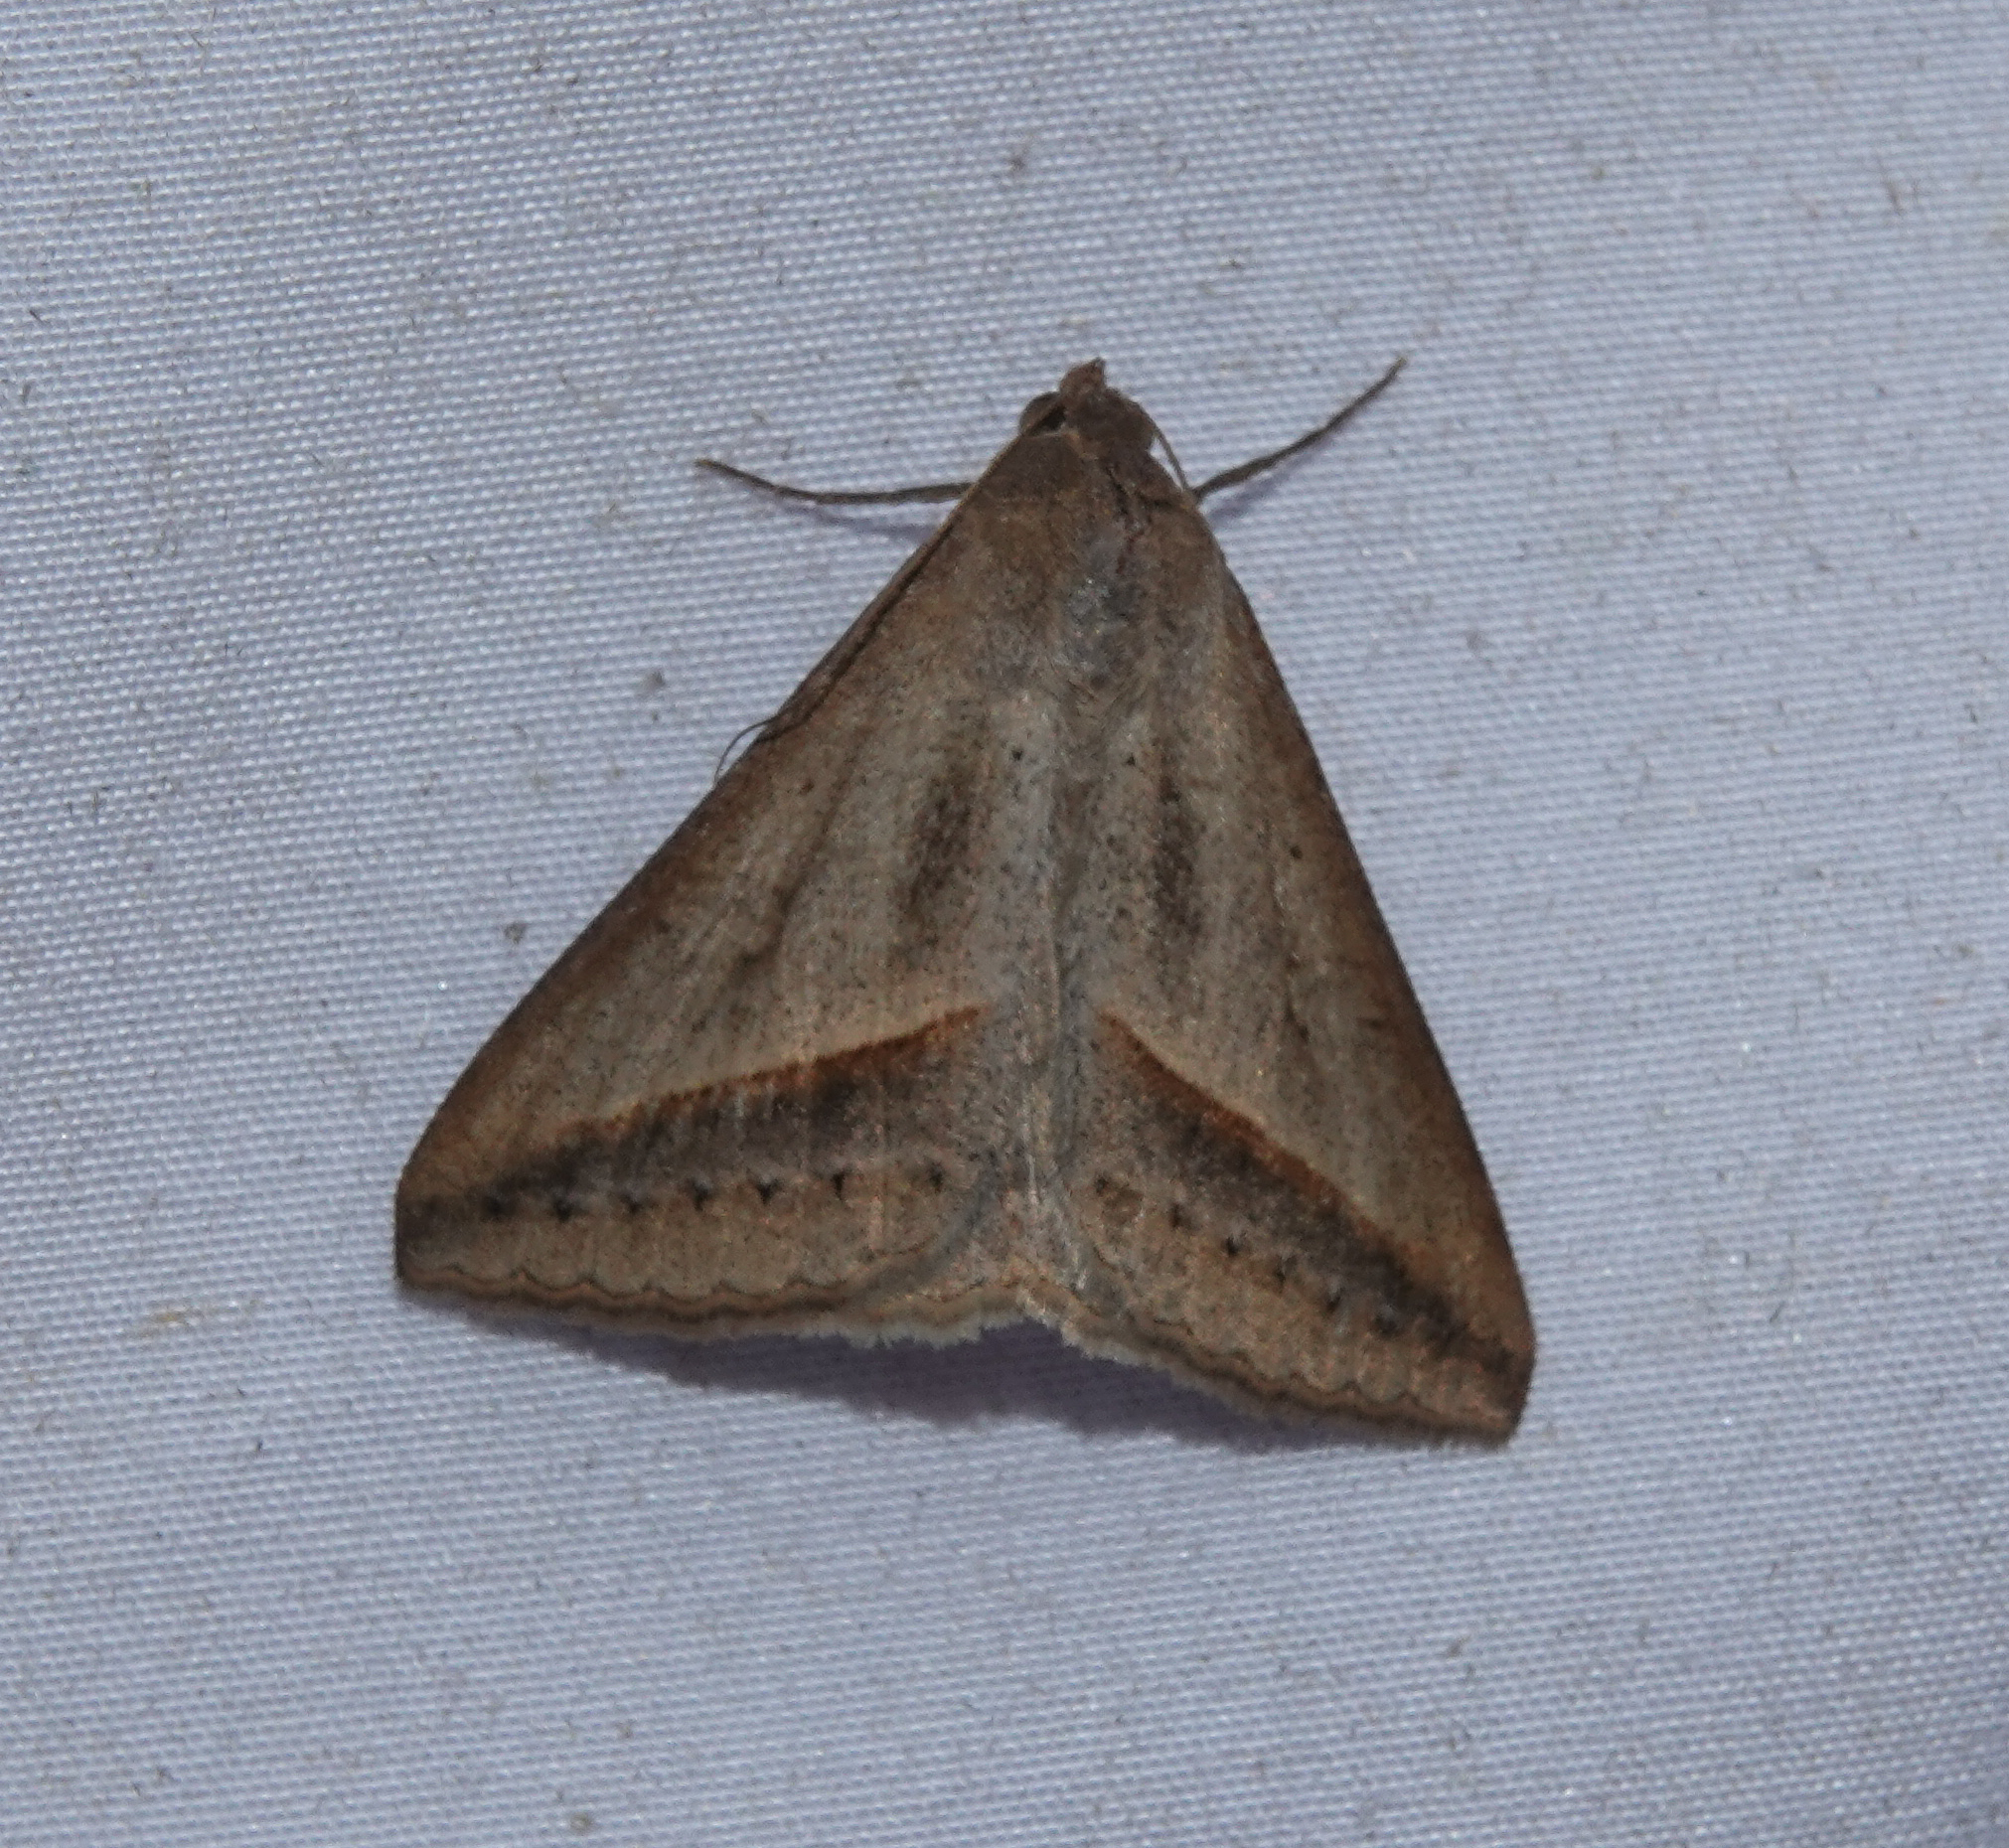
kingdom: Animalia
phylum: Arthropoda
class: Insecta
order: Lepidoptera
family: Erebidae
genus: Mocis
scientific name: Mocis frugalis
